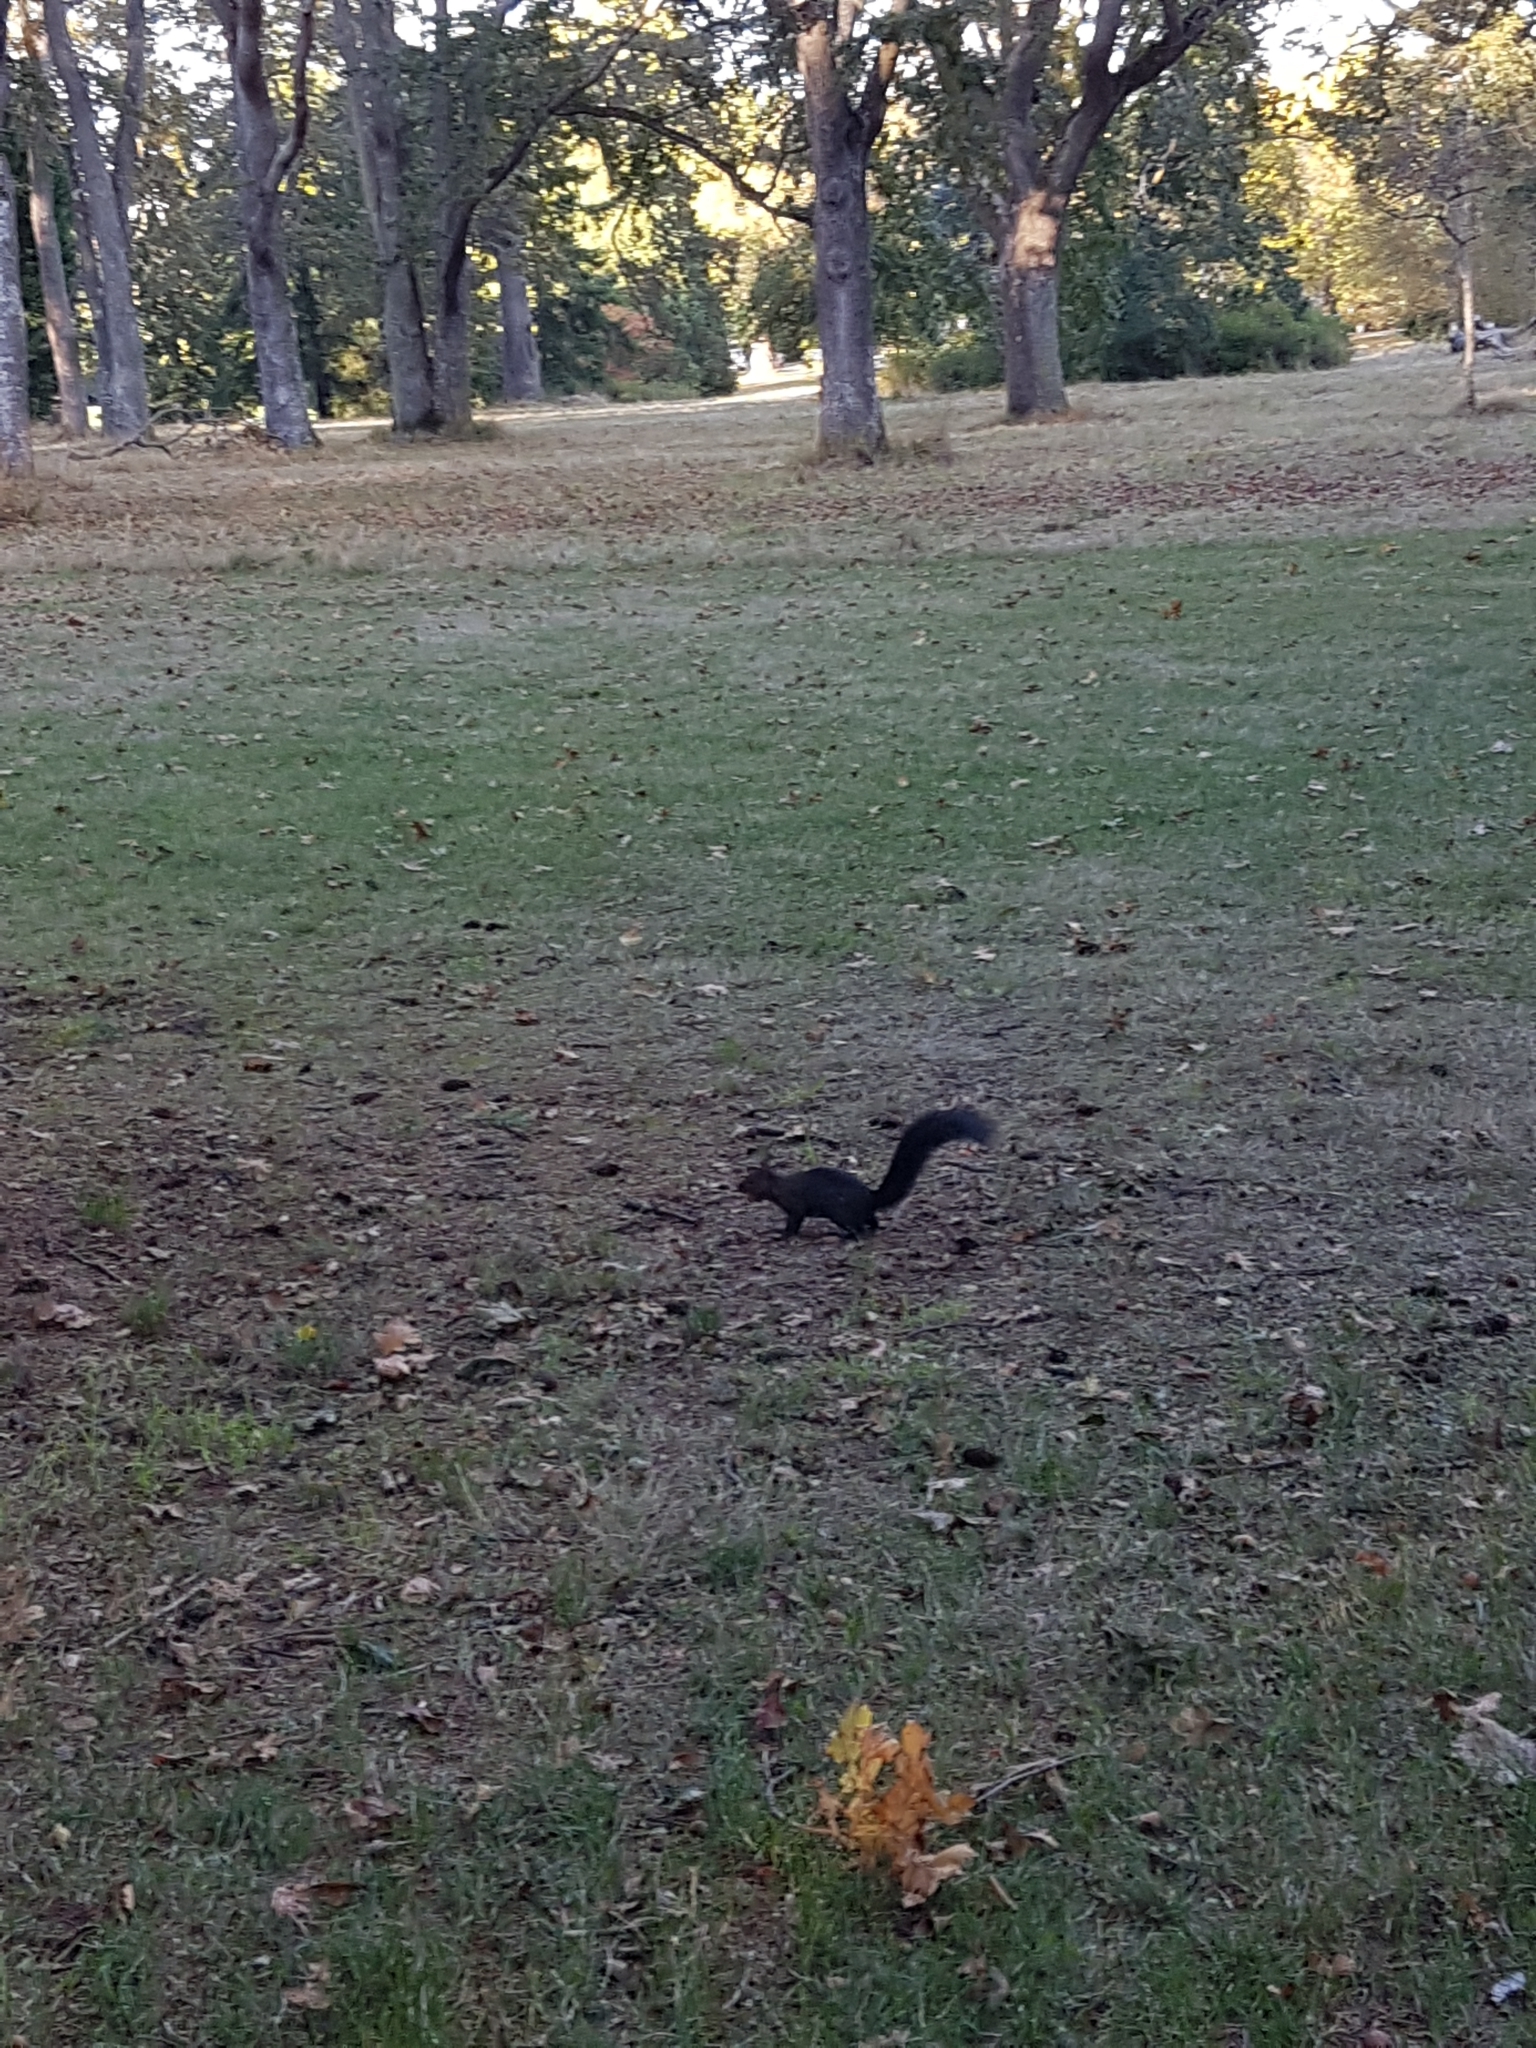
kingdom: Animalia
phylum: Chordata
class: Mammalia
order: Rodentia
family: Sciuridae
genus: Sciurus
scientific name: Sciurus carolinensis
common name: Eastern gray squirrel
